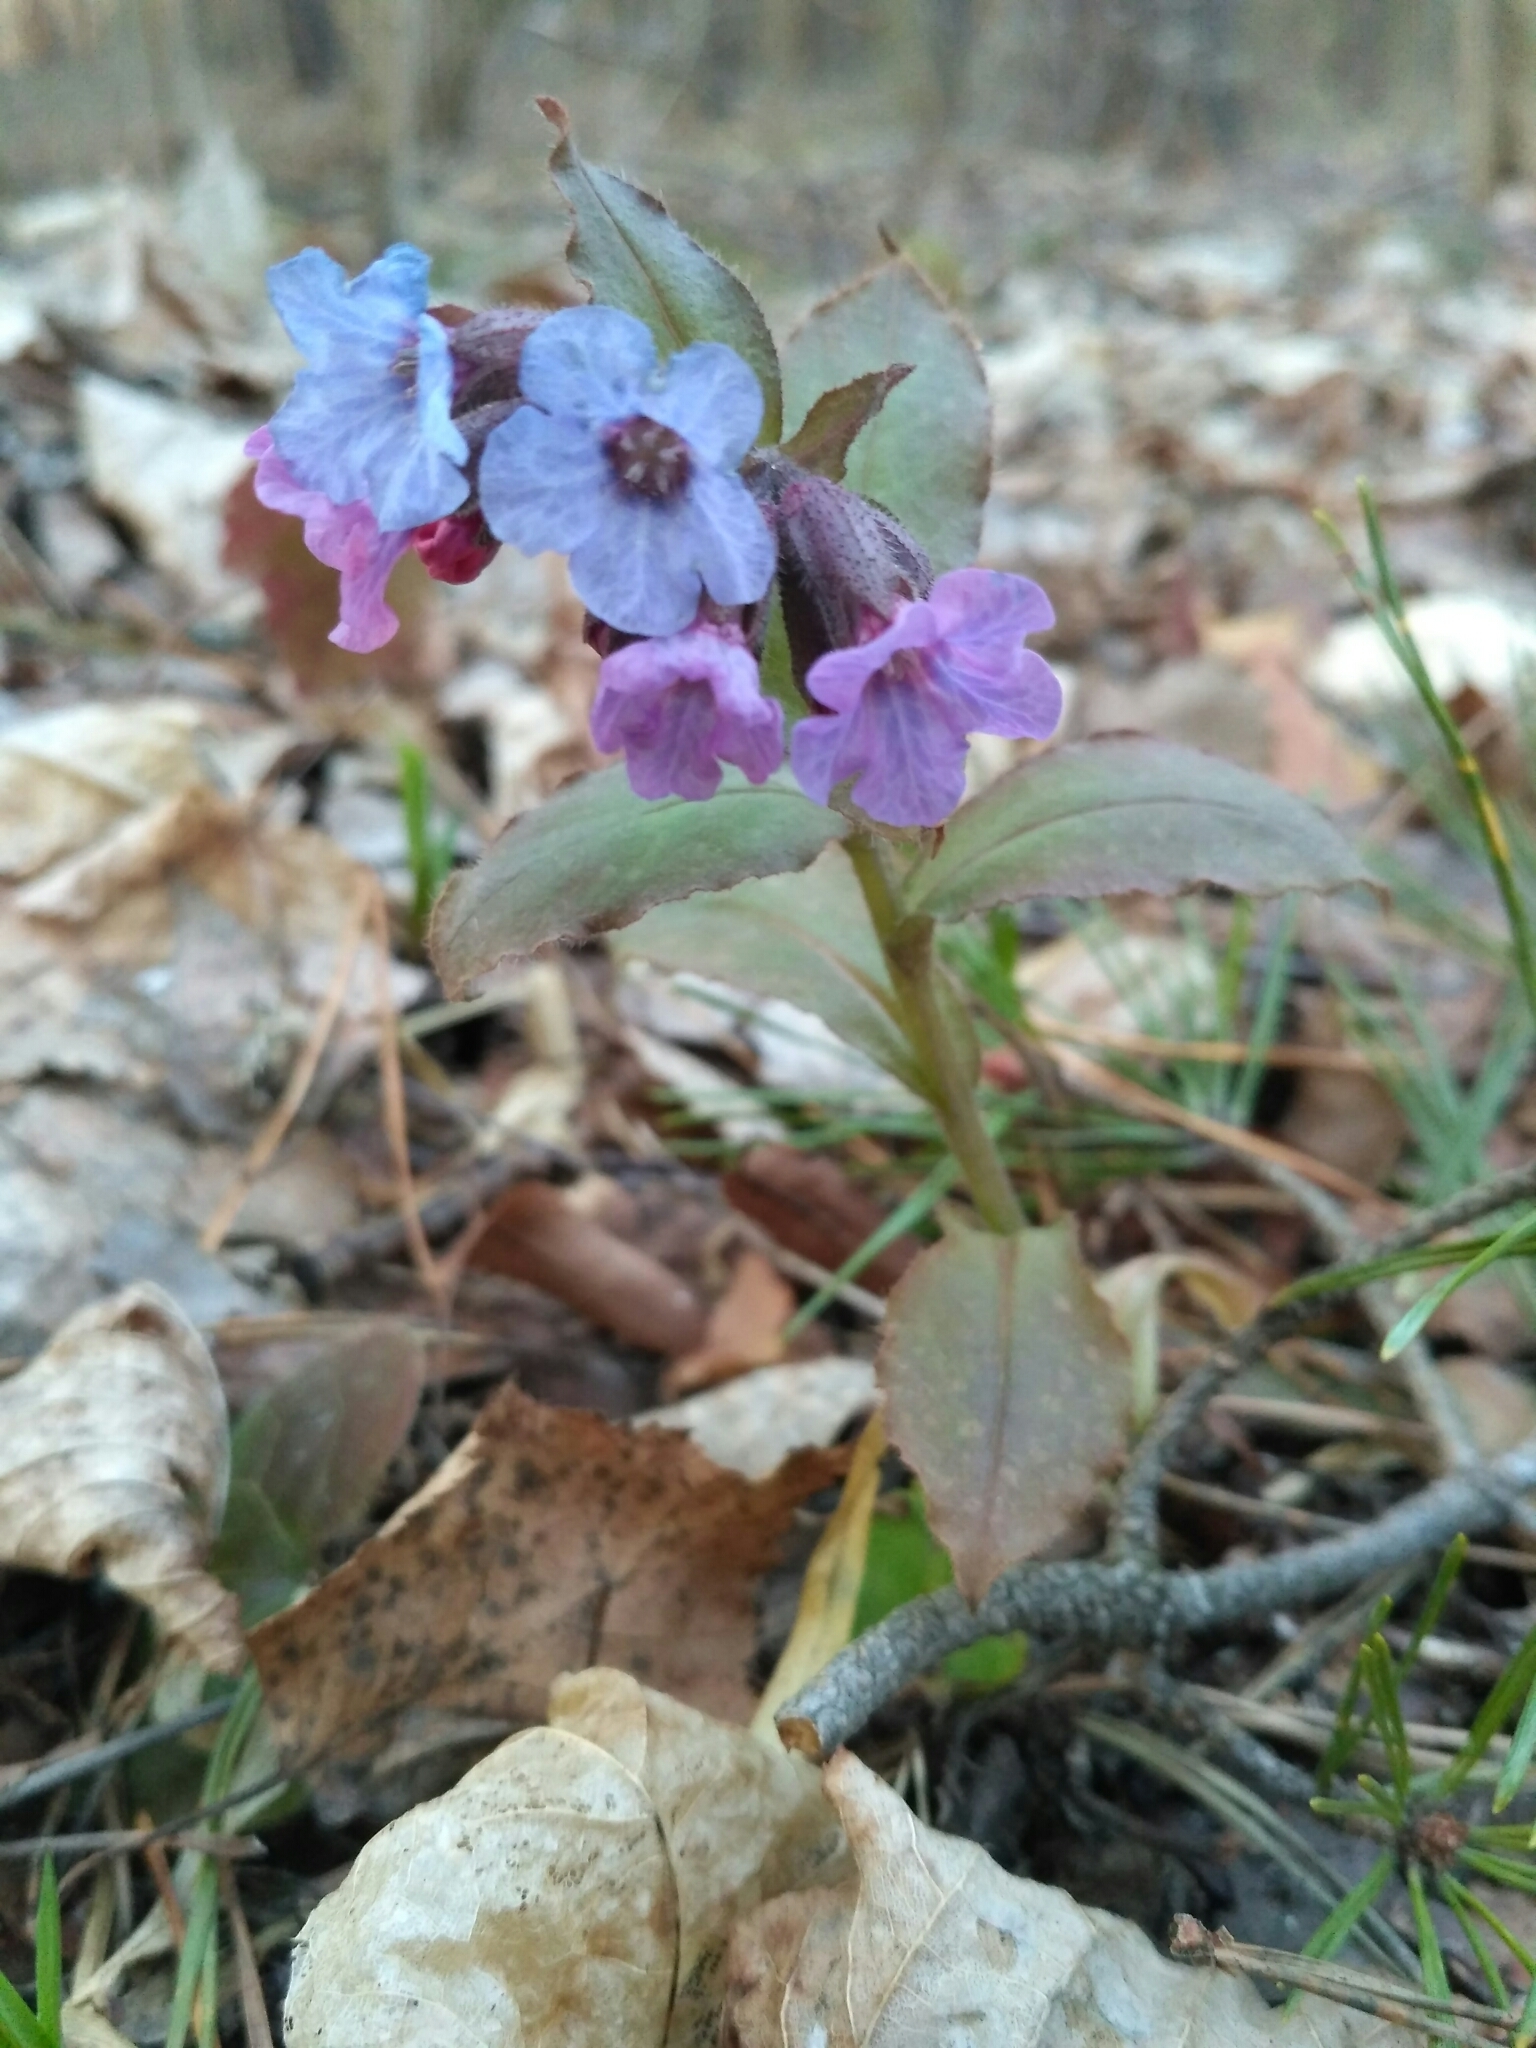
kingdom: Plantae
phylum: Tracheophyta
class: Magnoliopsida
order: Boraginales
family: Boraginaceae
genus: Pulmonaria
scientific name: Pulmonaria obscura
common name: Suffolk lungwort
